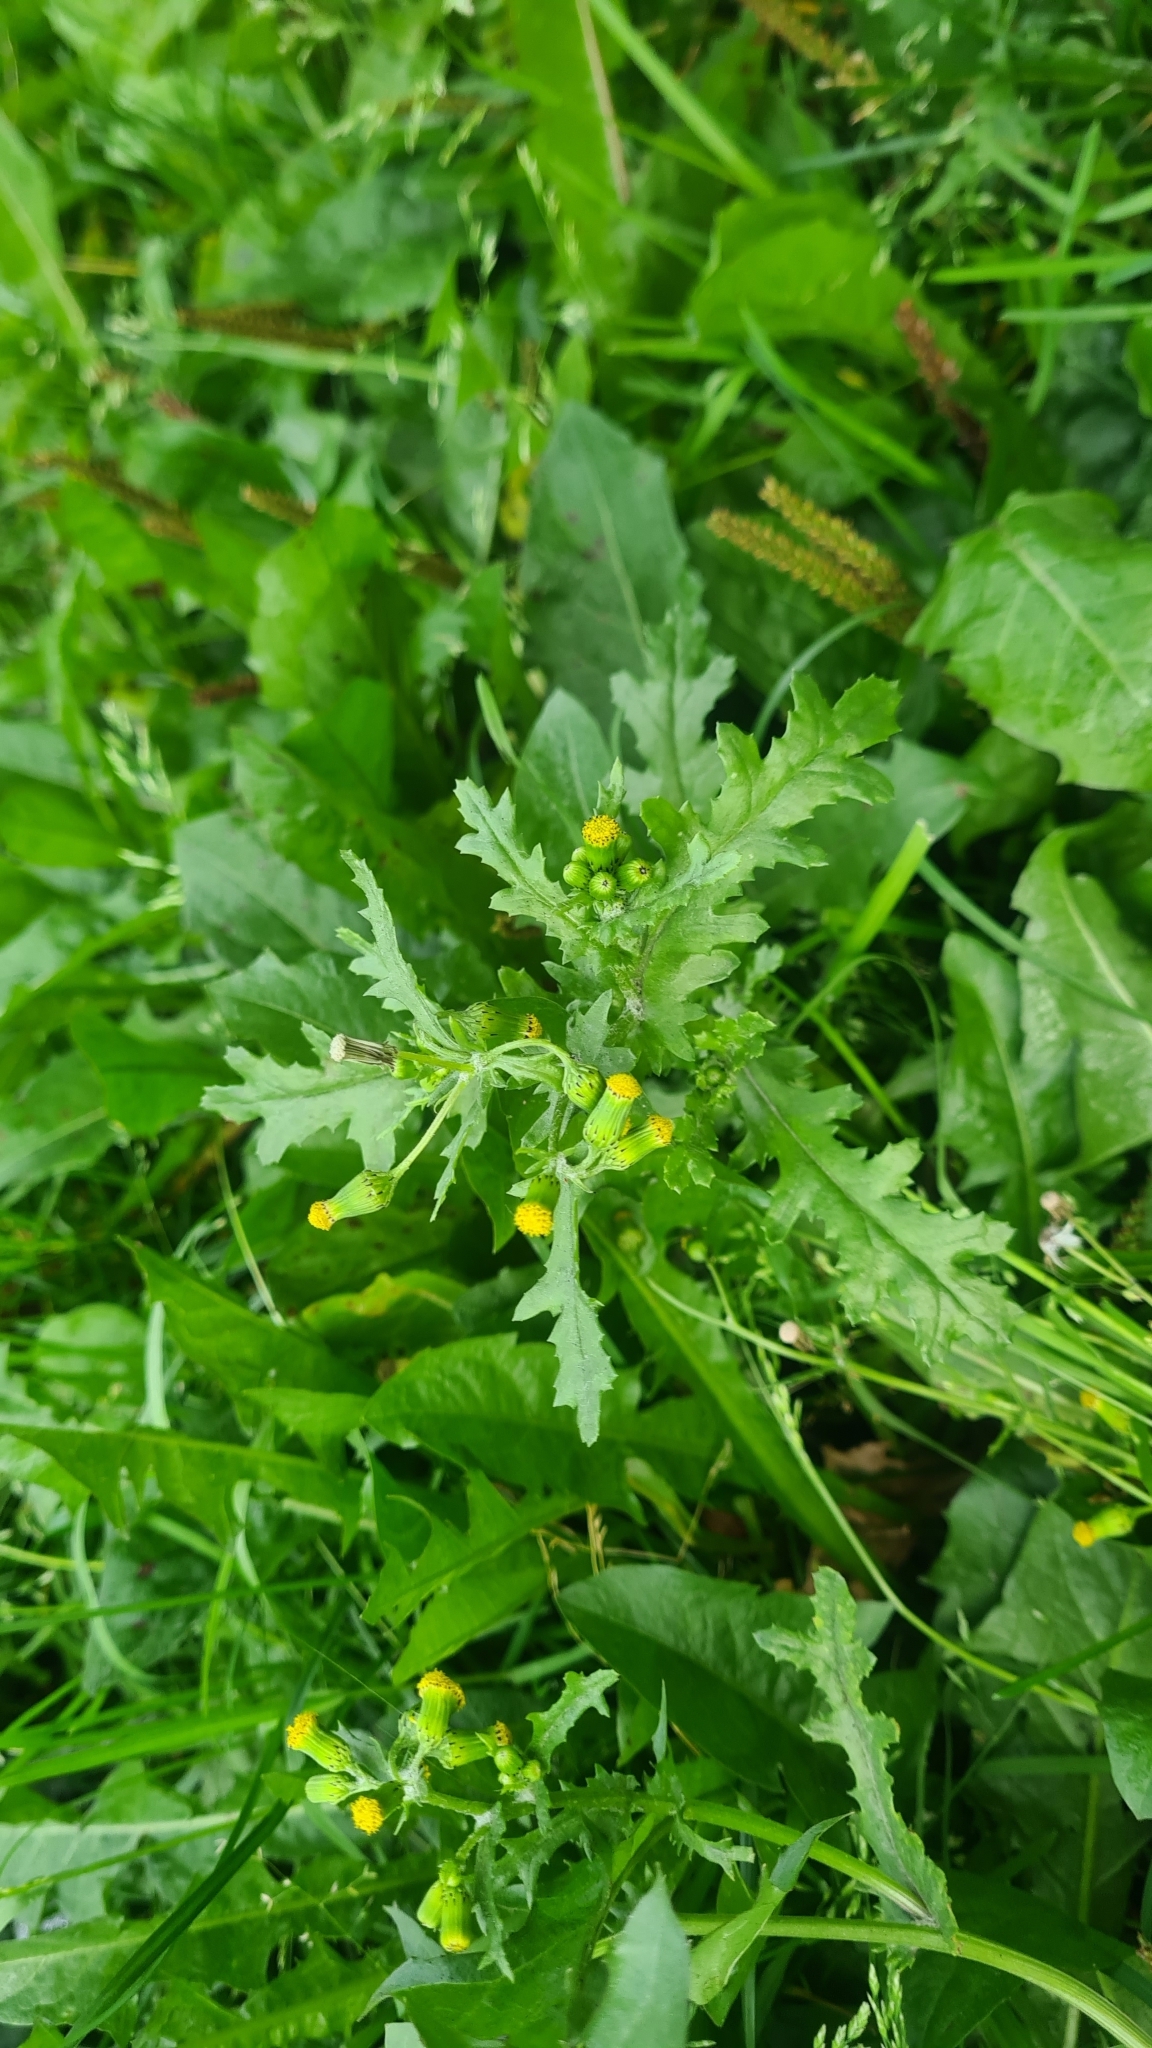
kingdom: Plantae
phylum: Tracheophyta
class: Magnoliopsida
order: Asterales
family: Asteraceae
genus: Senecio
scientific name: Senecio vulgaris
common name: Old-man-in-the-spring
